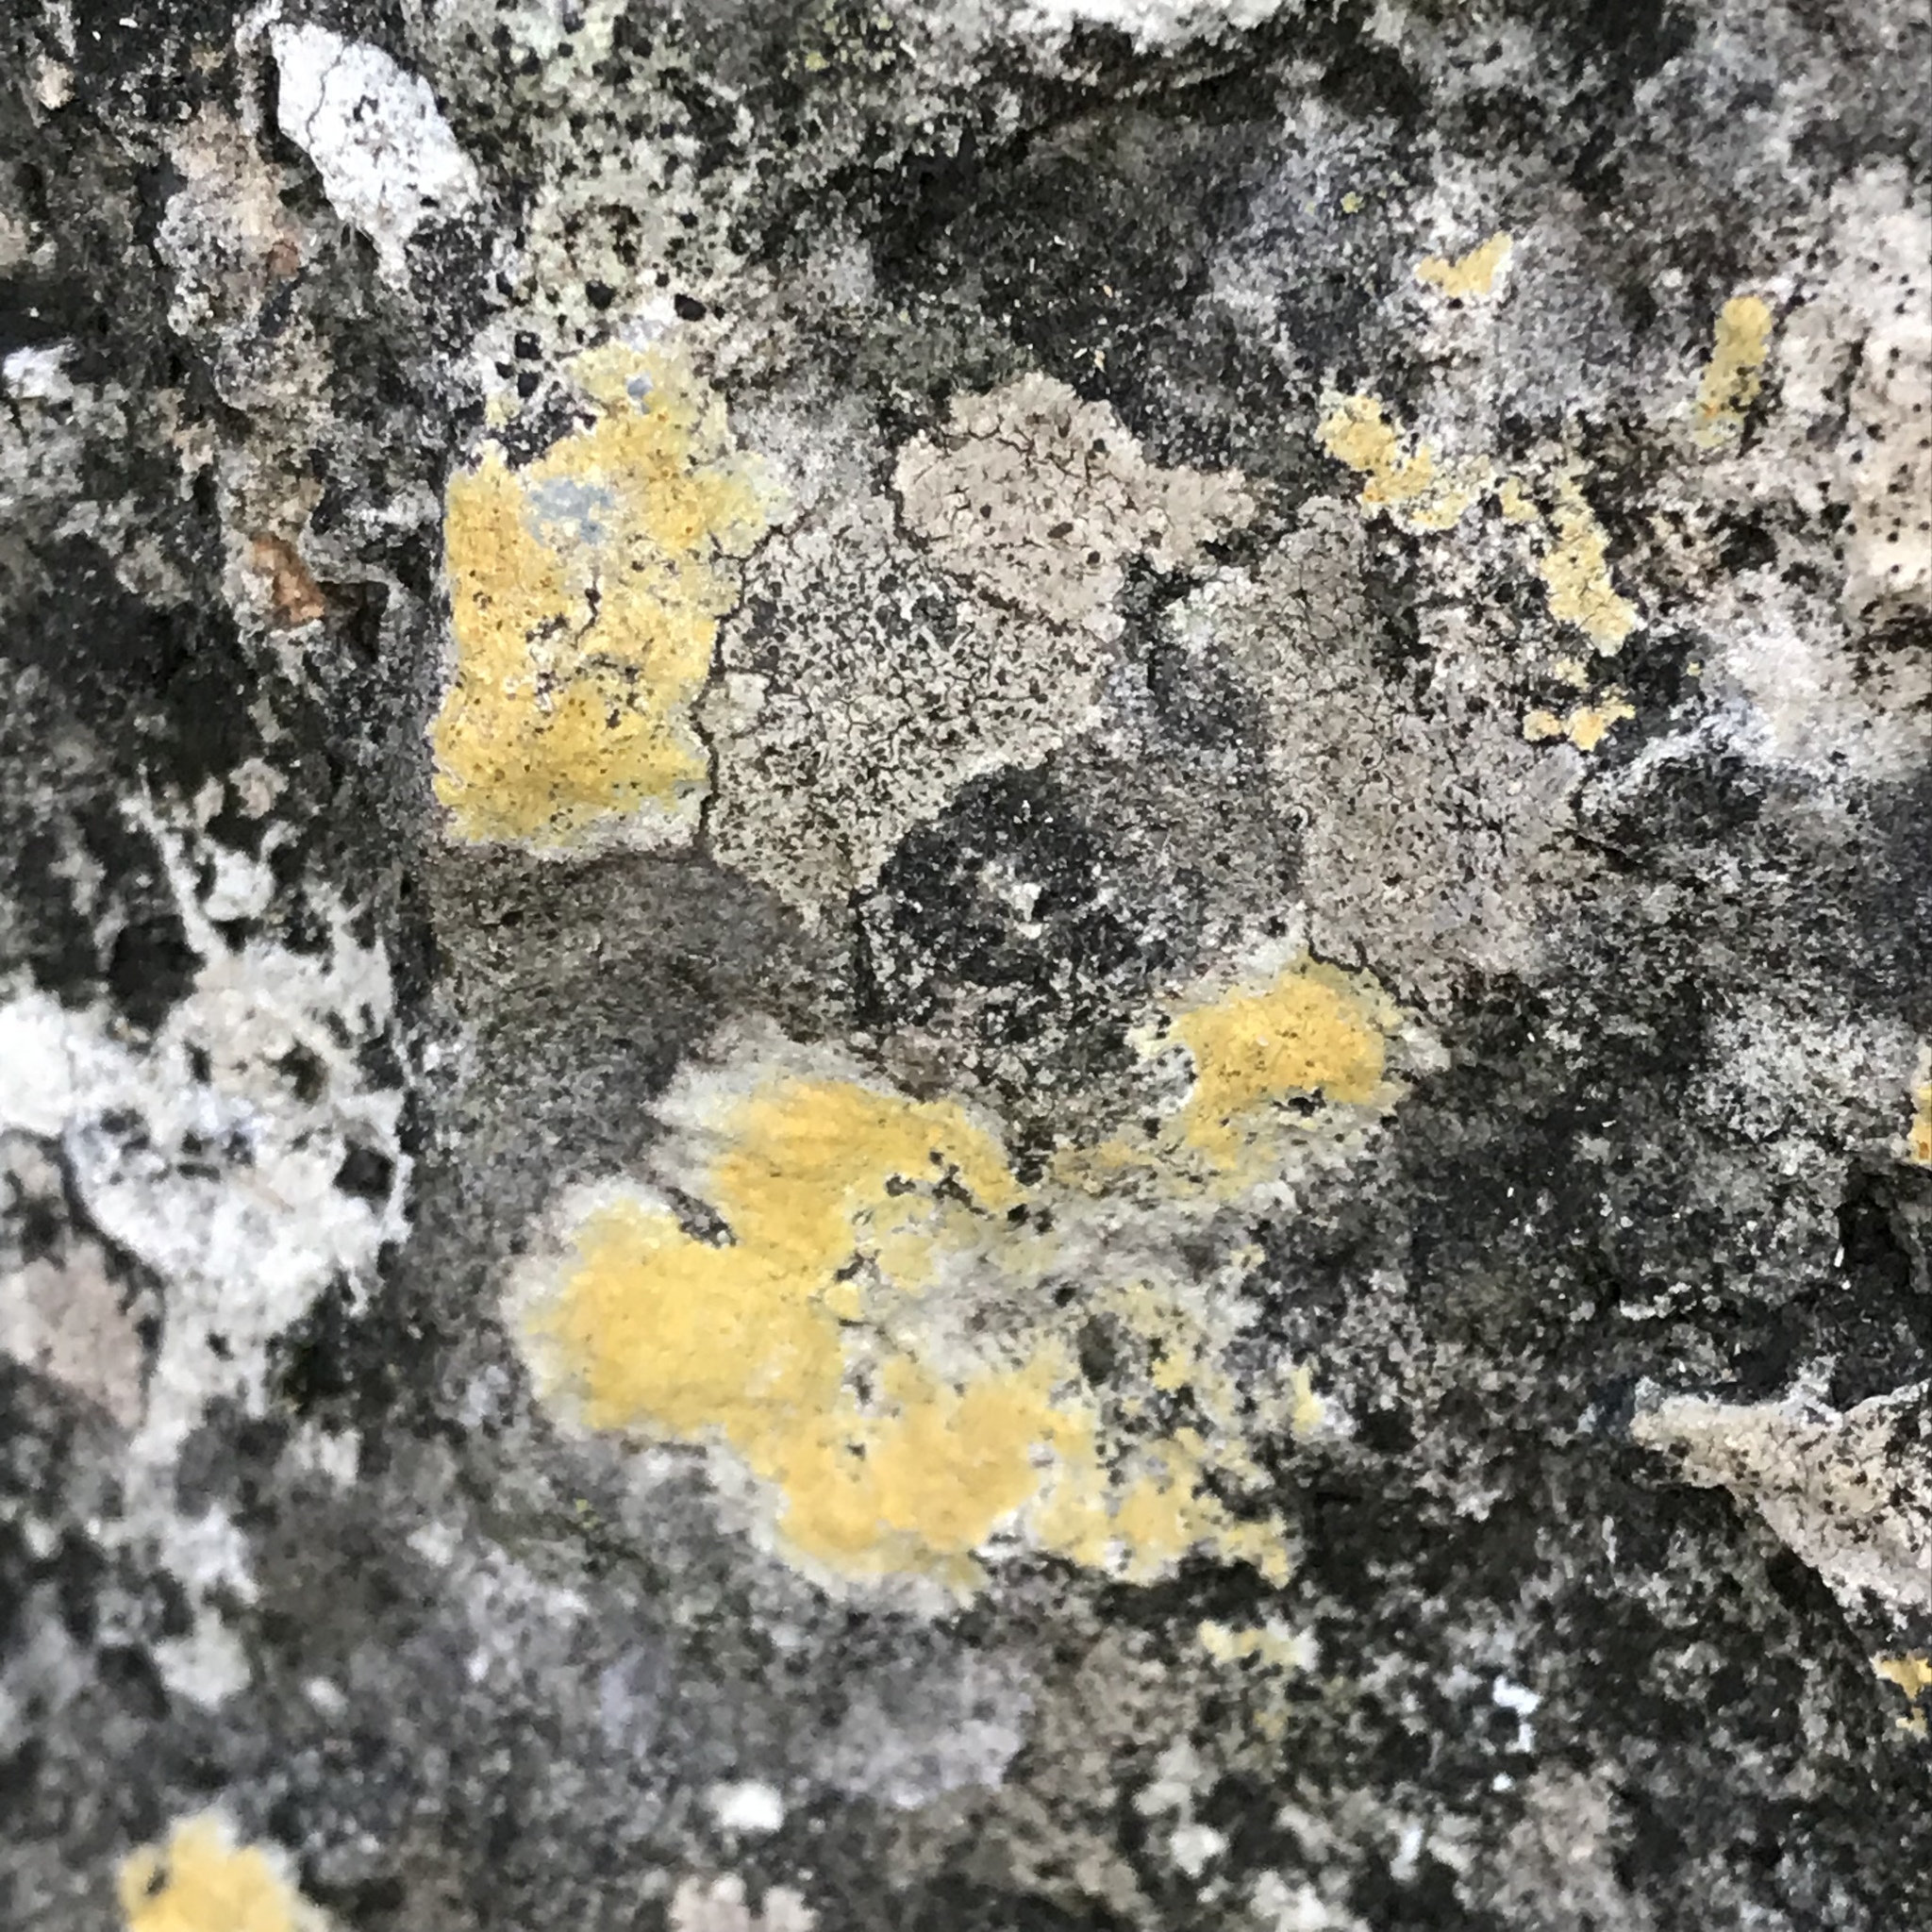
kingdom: Fungi
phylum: Ascomycota
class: Lecanoromycetes
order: Teloschistales
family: Teloschistaceae
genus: Gyalolechia
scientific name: Gyalolechia flavovirescens
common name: Sulphur firedot
